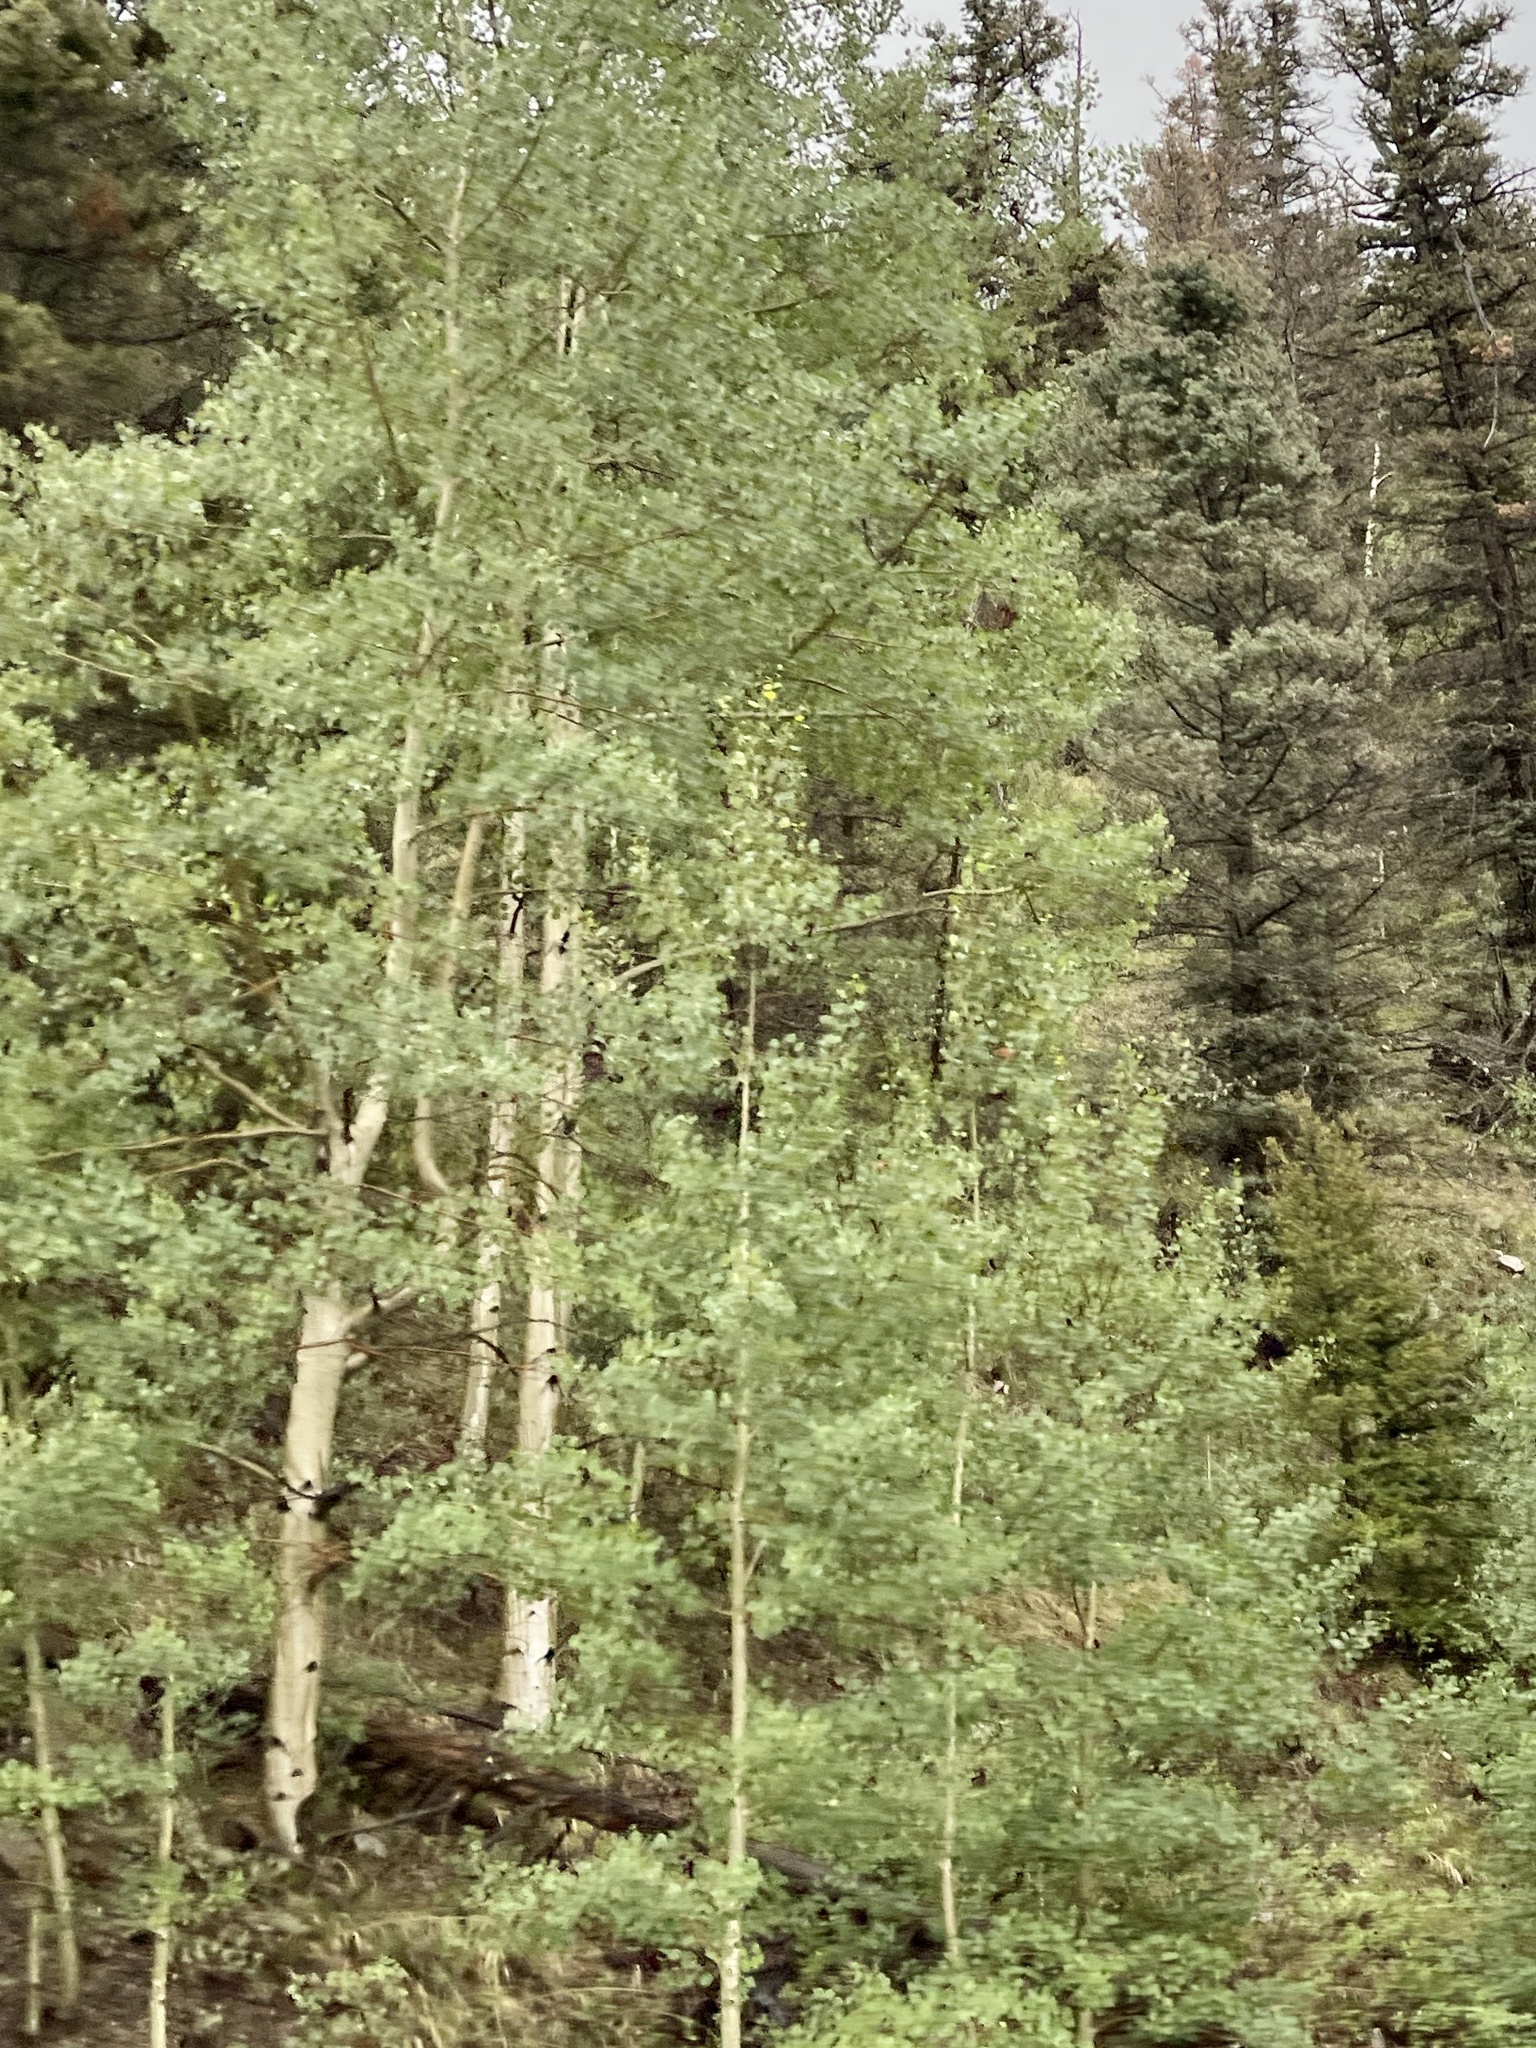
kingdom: Plantae
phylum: Tracheophyta
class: Magnoliopsida
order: Malpighiales
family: Salicaceae
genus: Populus
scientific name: Populus tremuloides
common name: Quaking aspen
